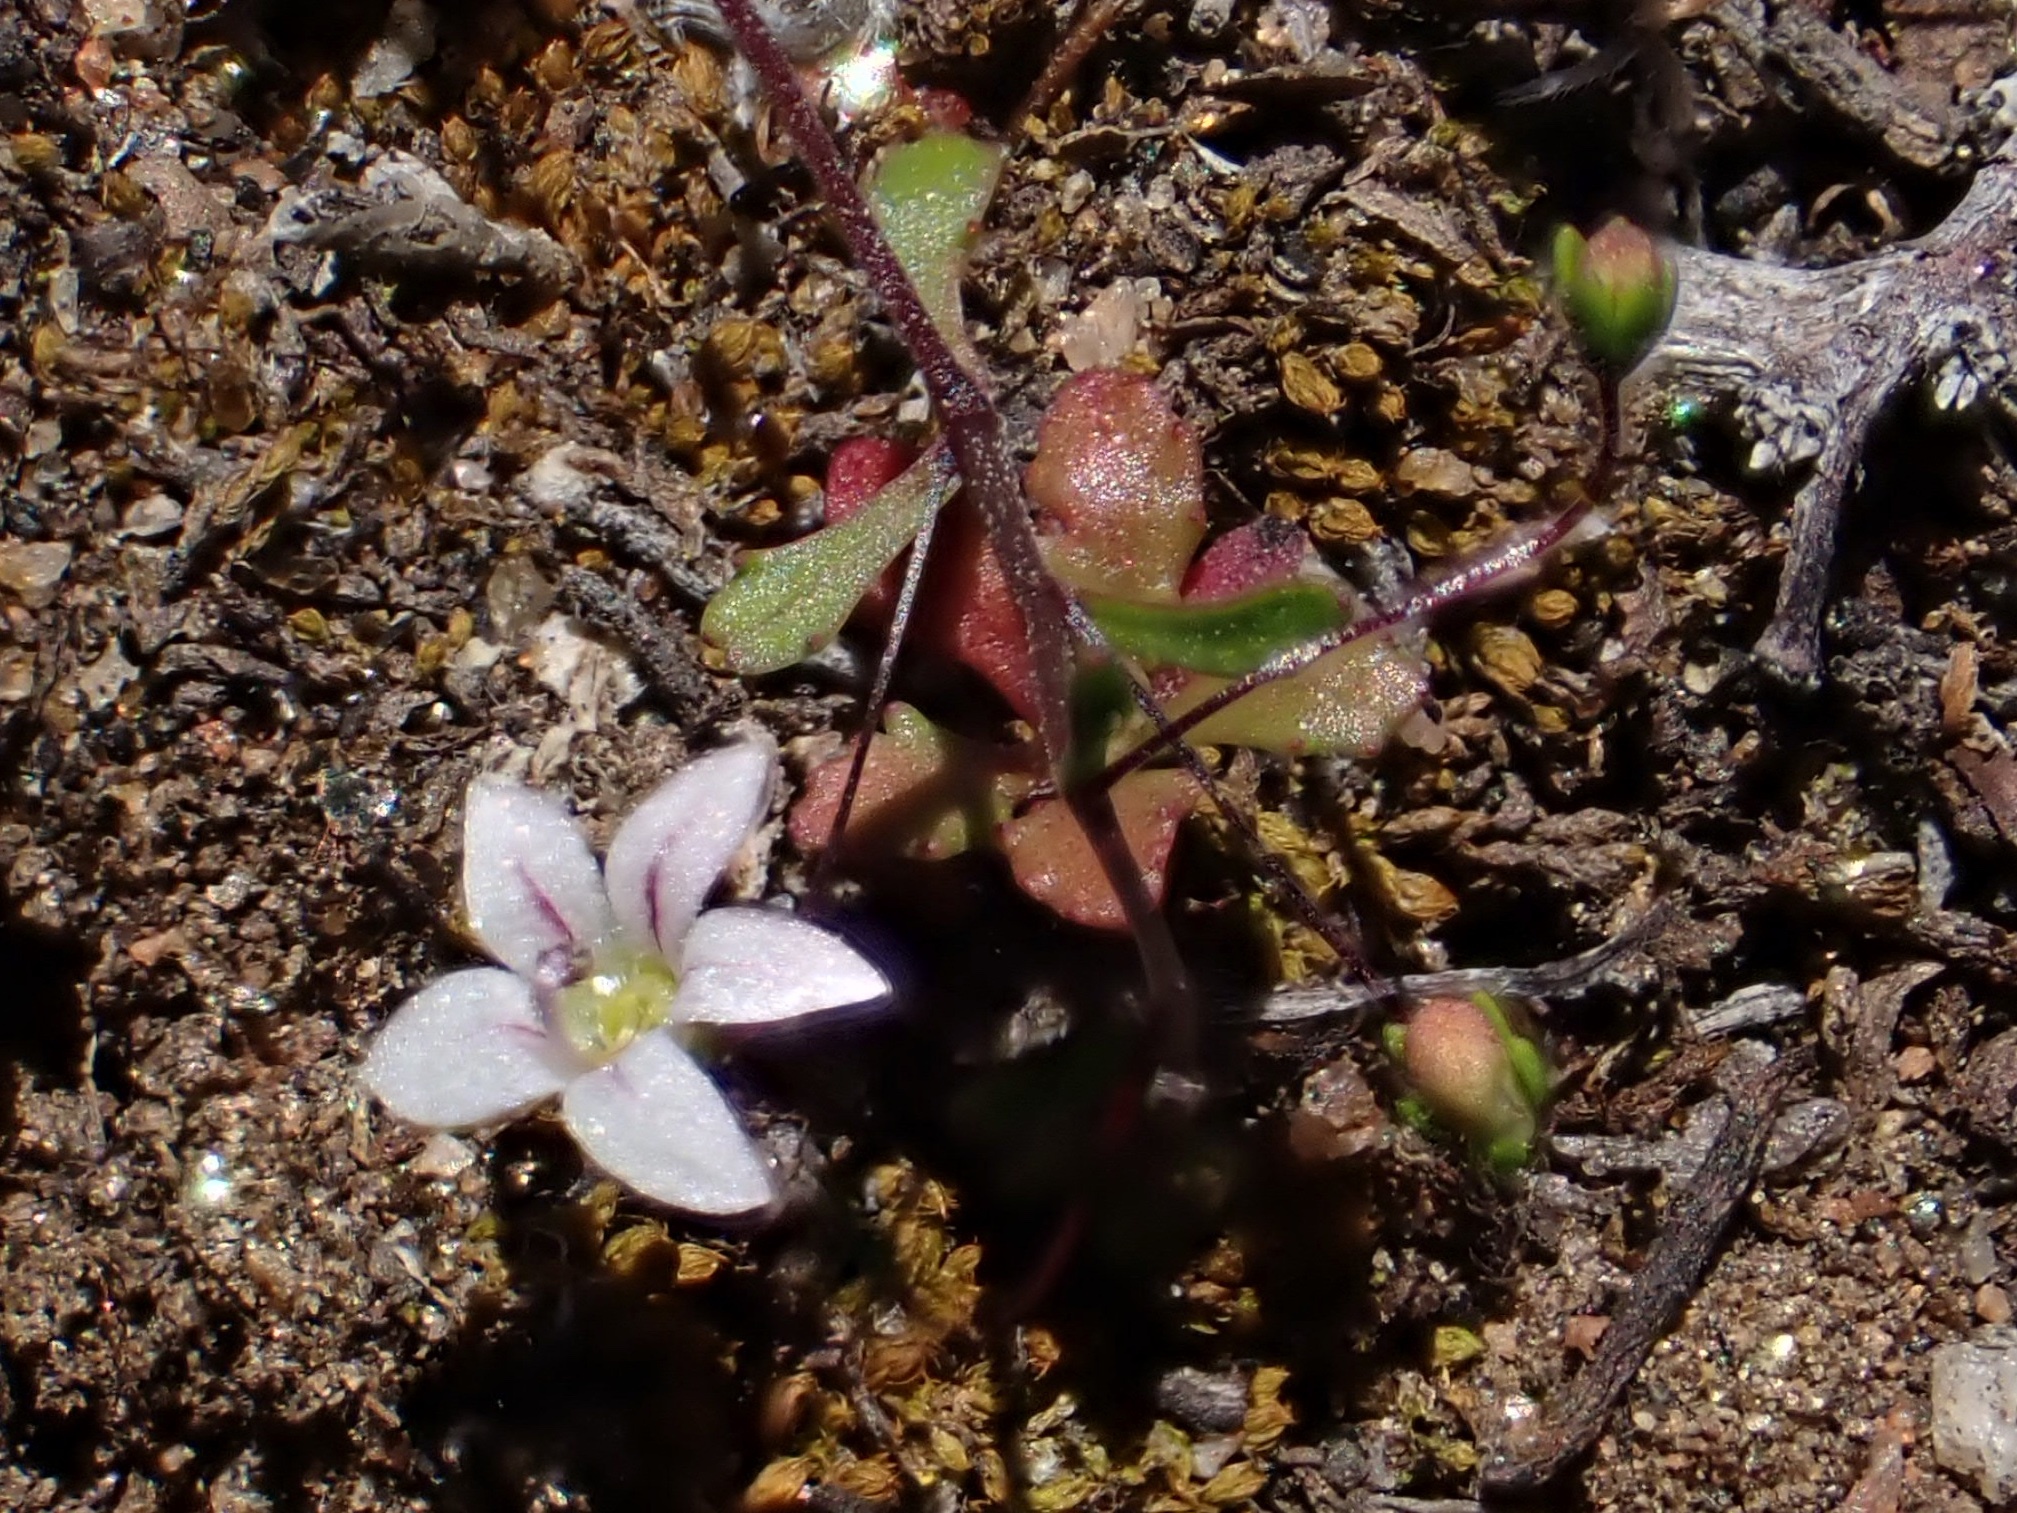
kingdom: Plantae
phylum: Tracheophyta
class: Magnoliopsida
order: Asterales
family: Campanulaceae
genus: Nemacladus
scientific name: Nemacladus ramosissimus
